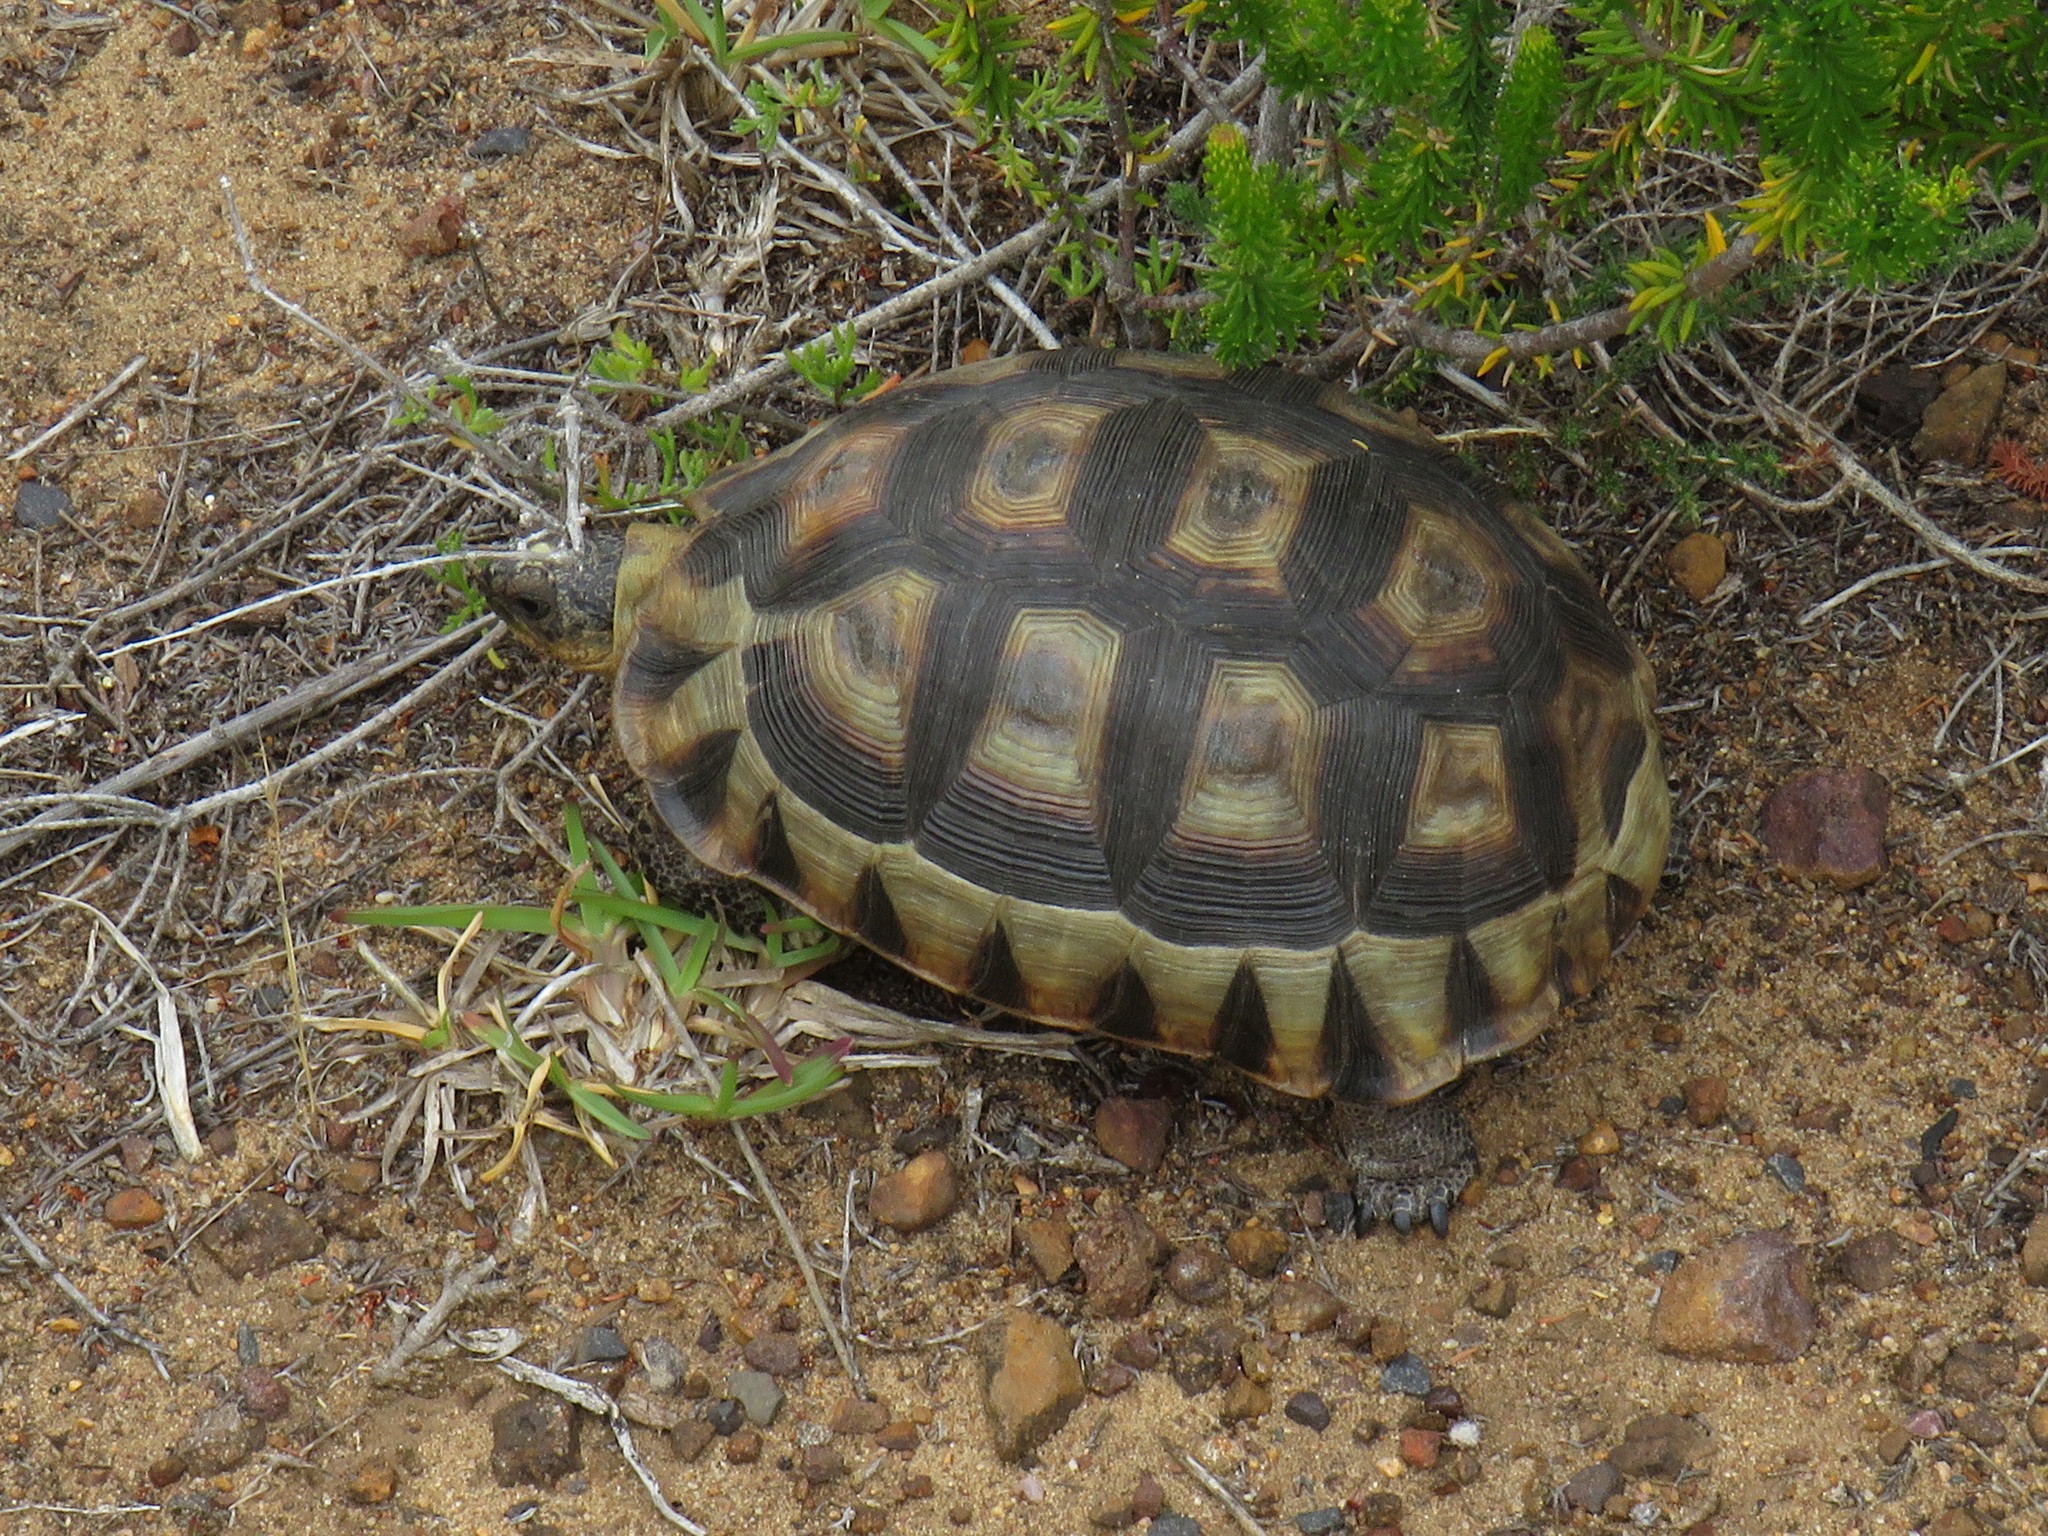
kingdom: Animalia
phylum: Chordata
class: Testudines
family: Testudinidae
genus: Chersina
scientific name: Chersina angulata
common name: South african bowsprit tortoise
